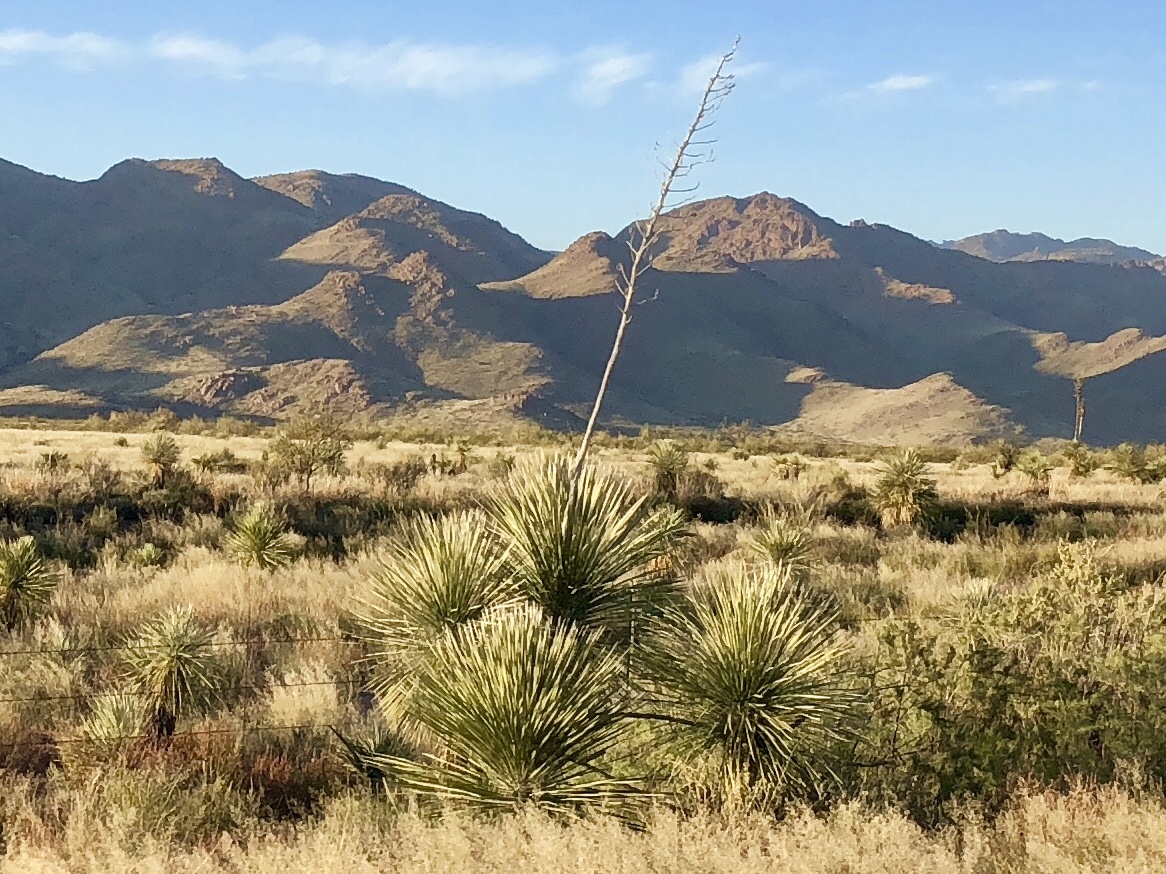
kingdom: Plantae
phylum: Tracheophyta
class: Liliopsida
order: Asparagales
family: Asparagaceae
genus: Yucca
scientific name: Yucca elata
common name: Palmella
